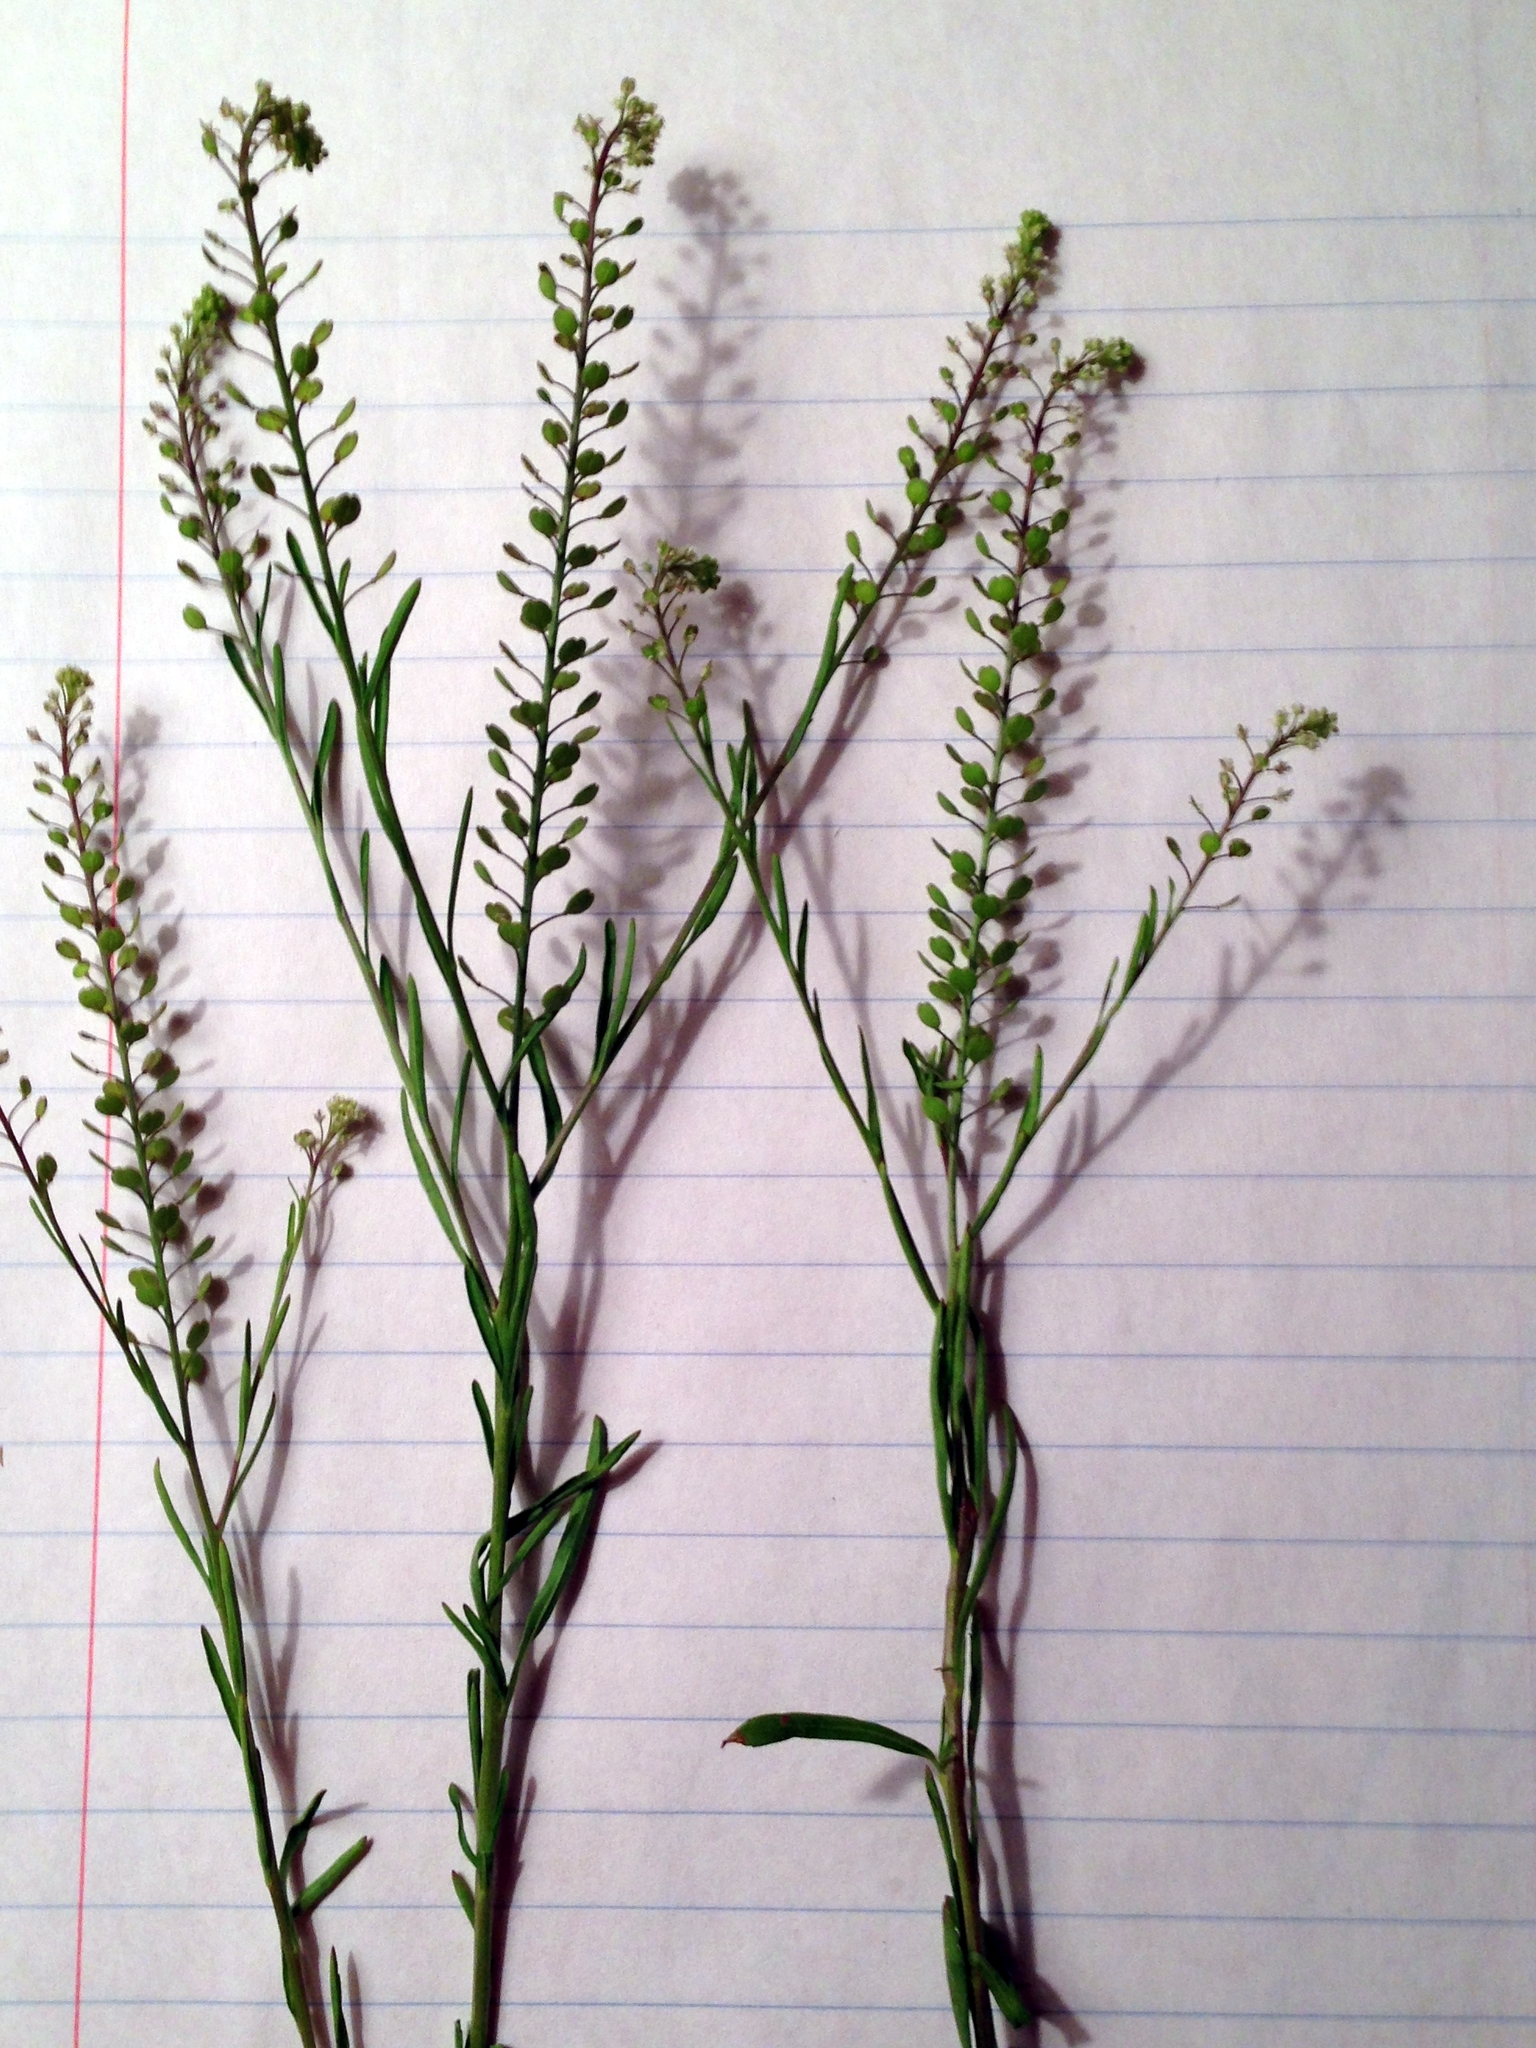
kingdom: Plantae
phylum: Tracheophyta
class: Magnoliopsida
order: Brassicales
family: Brassicaceae
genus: Lepidium
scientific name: Lepidium virginicum
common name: Least pepperwort
